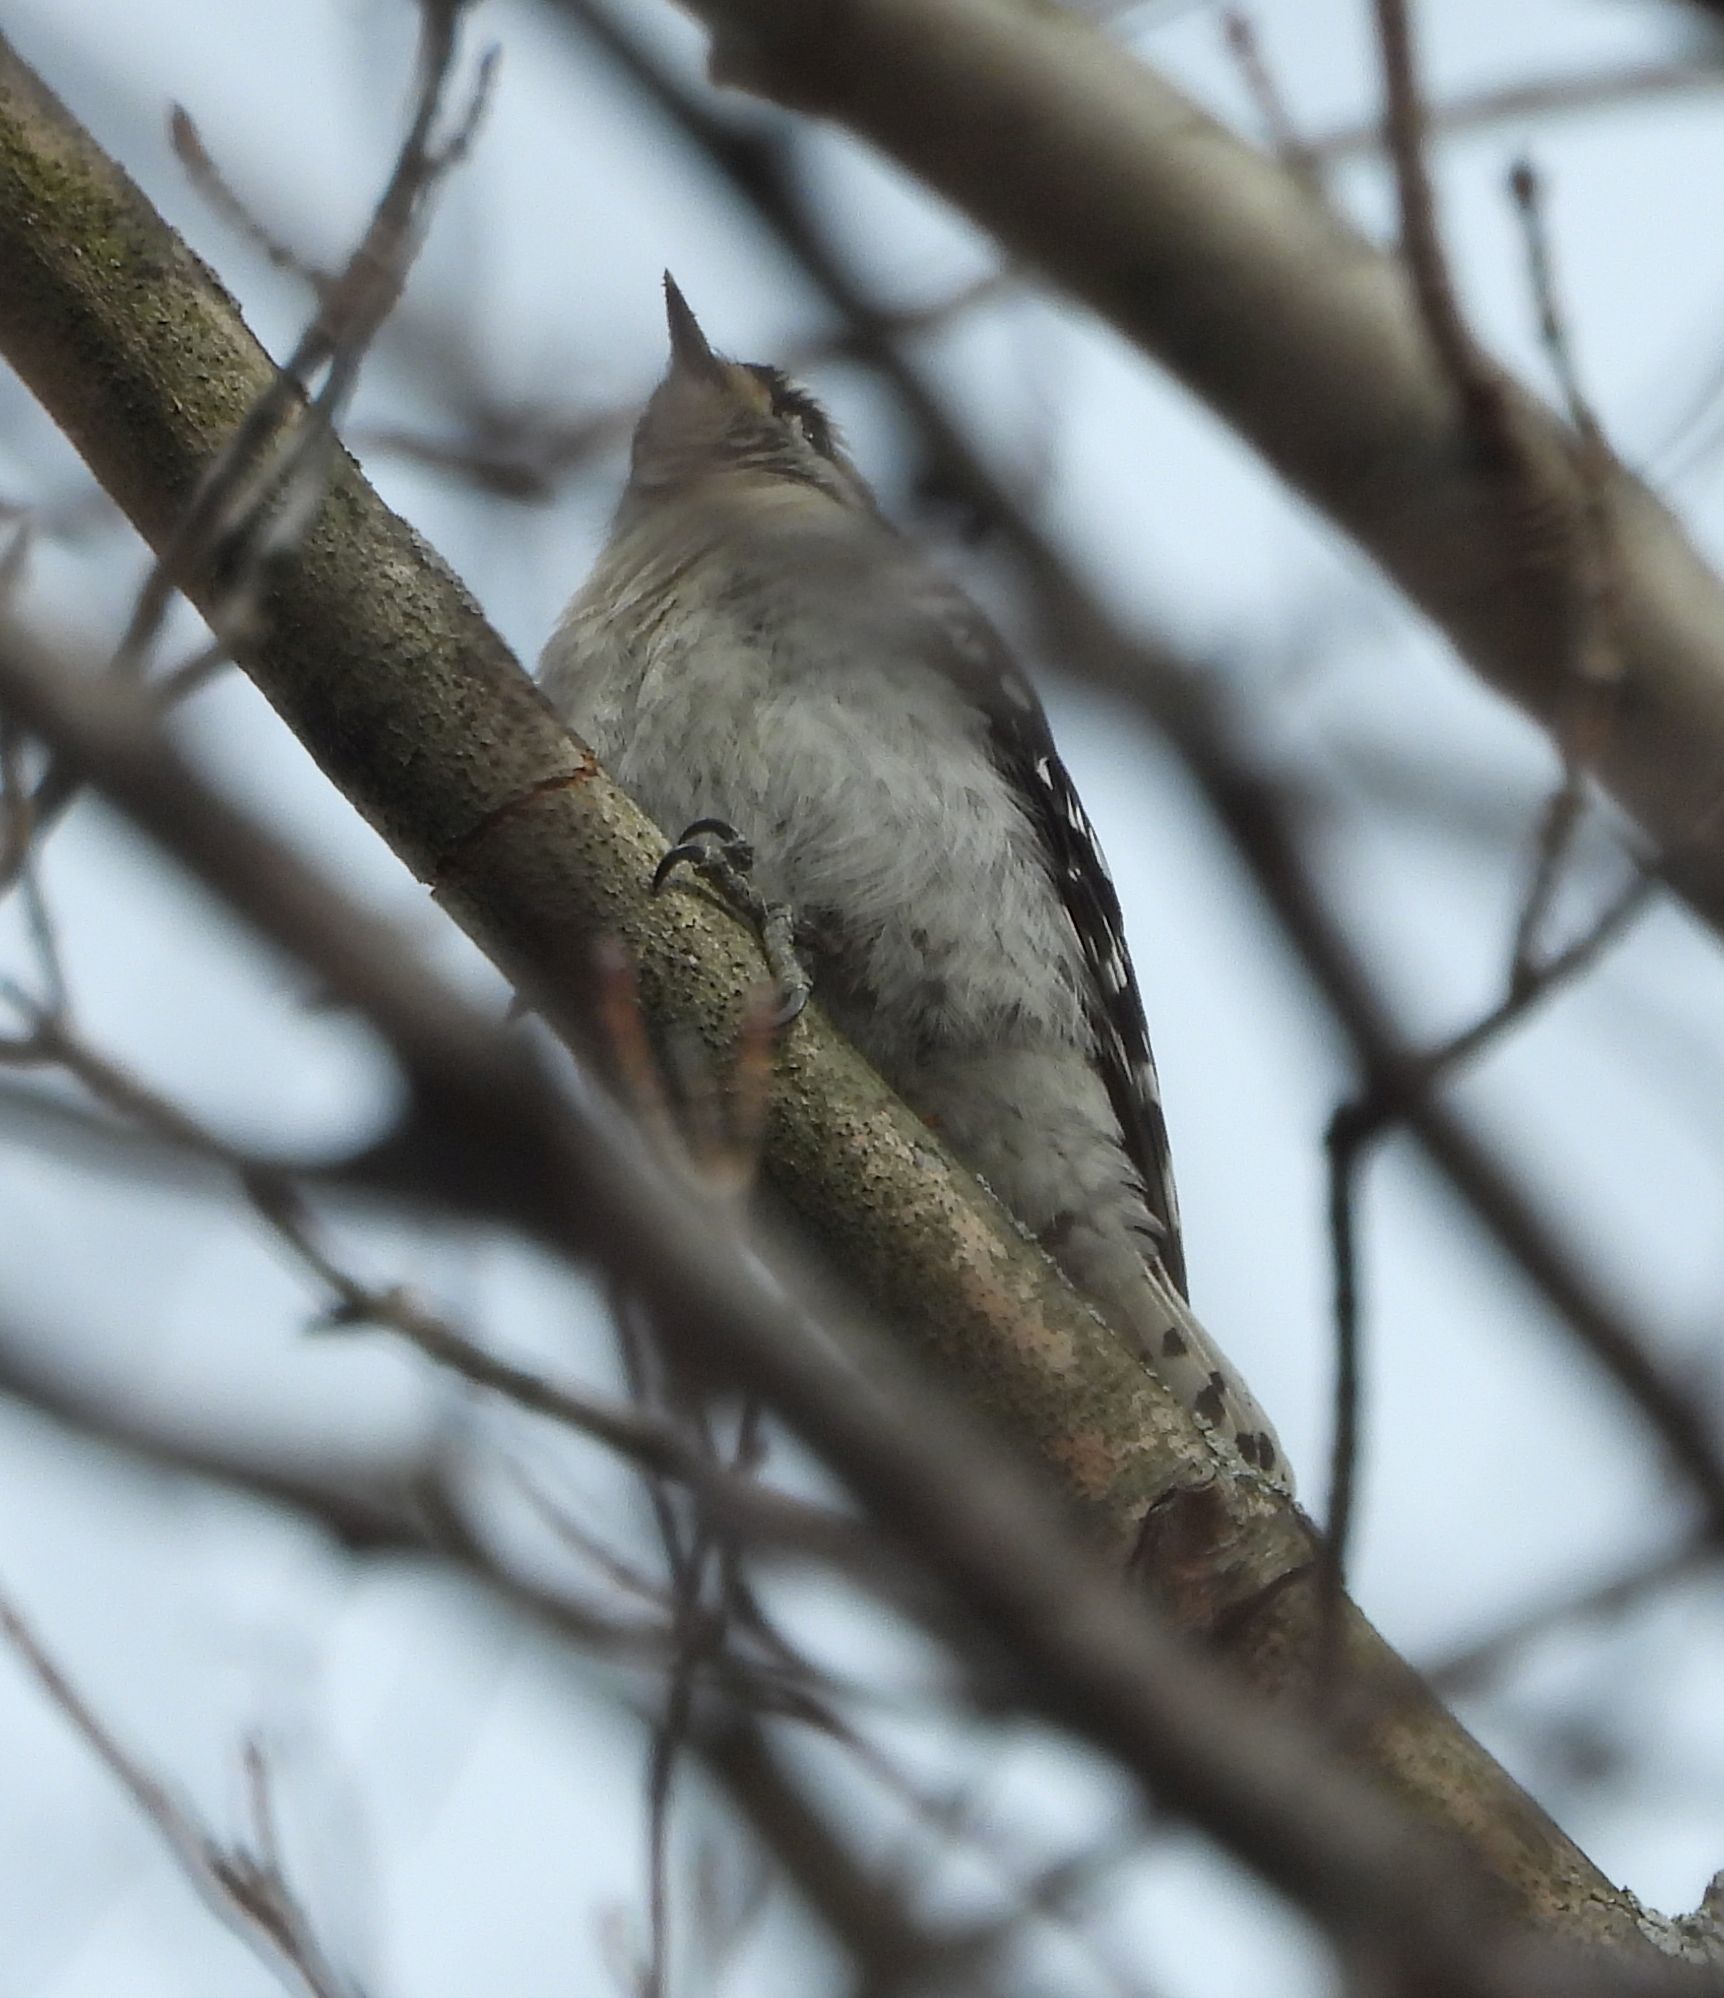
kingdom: Animalia
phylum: Chordata
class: Aves
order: Piciformes
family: Picidae
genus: Dryobates
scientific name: Dryobates pubescens
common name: Downy woodpecker
